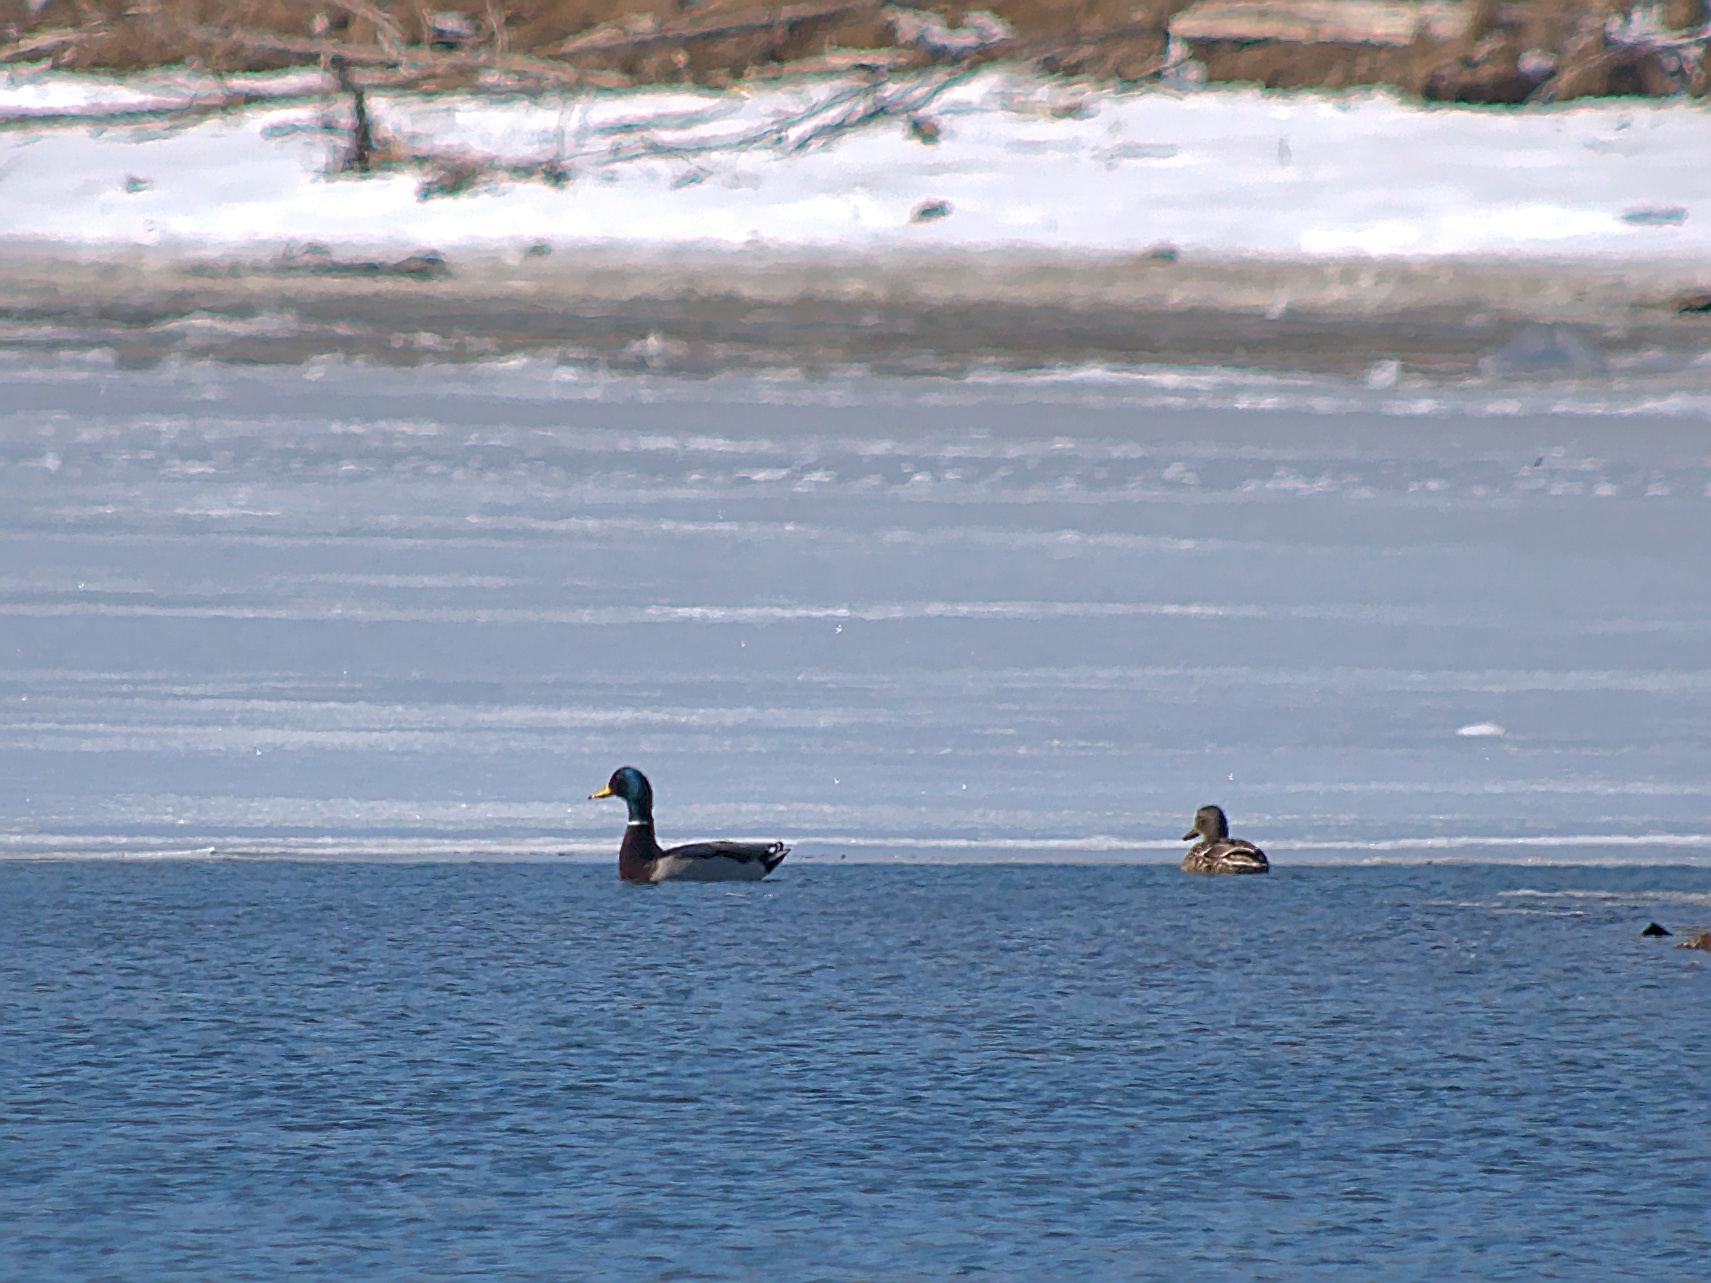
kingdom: Animalia
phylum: Chordata
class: Aves
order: Anseriformes
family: Anatidae
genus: Anas
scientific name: Anas platyrhynchos
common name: Mallard
